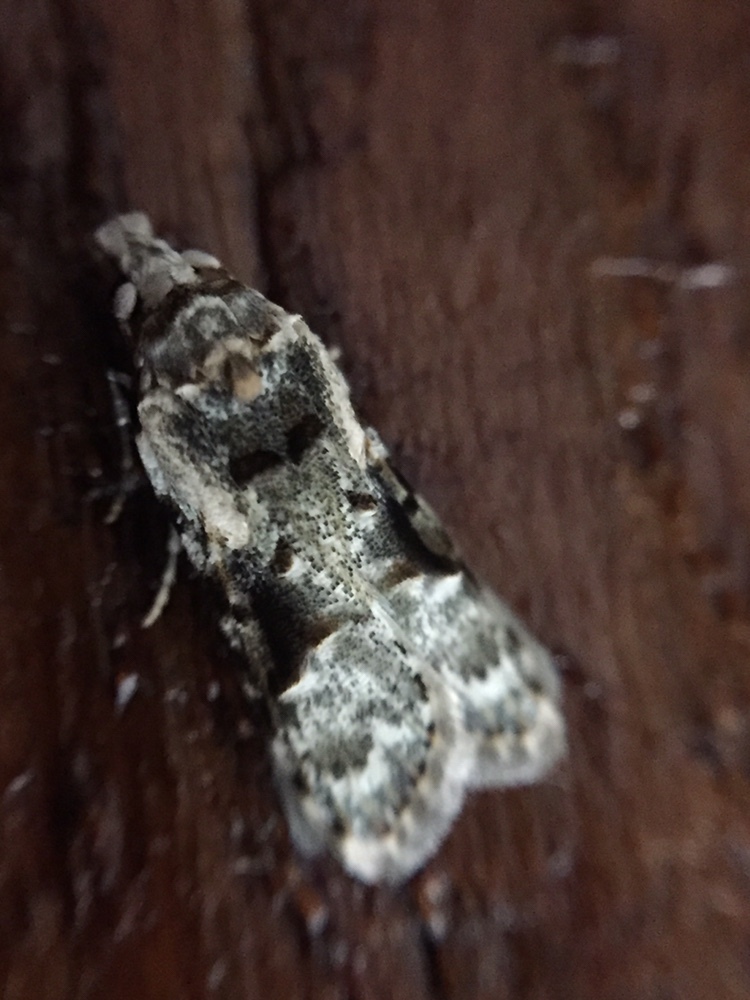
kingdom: Animalia
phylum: Arthropoda
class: Insecta
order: Lepidoptera
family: Carposinidae
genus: Coscinoptycha
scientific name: Coscinoptycha improbana
